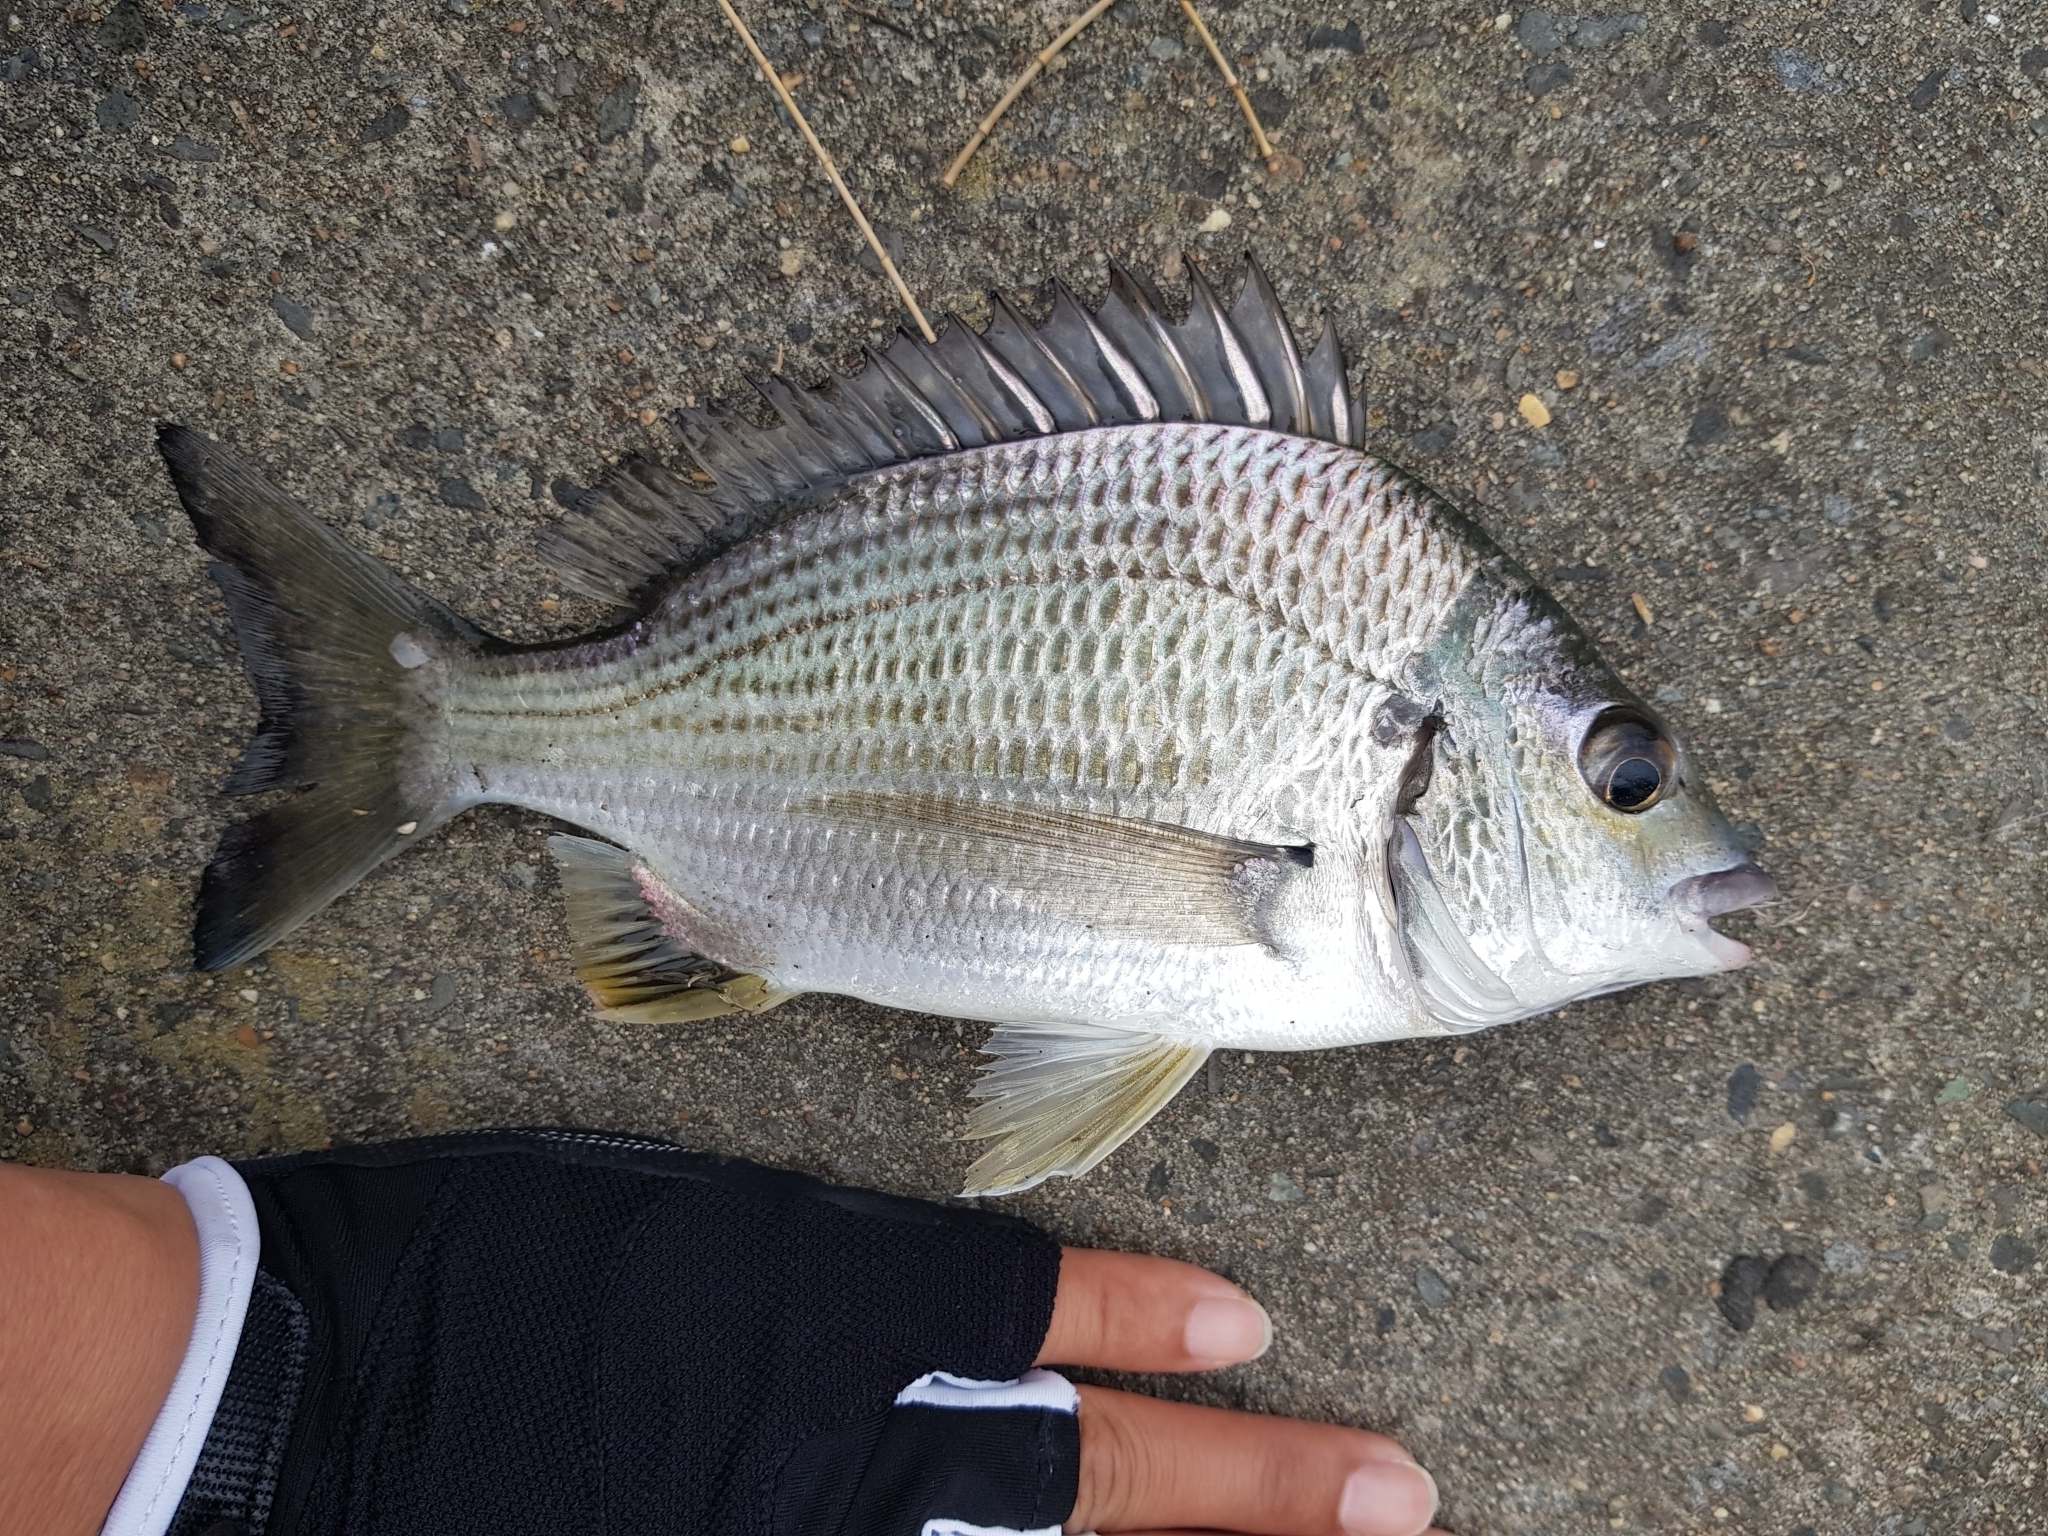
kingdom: Animalia
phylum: Chordata
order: Perciformes
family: Sparidae
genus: Acanthopagrus
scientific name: Acanthopagrus australis
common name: Surf bream
